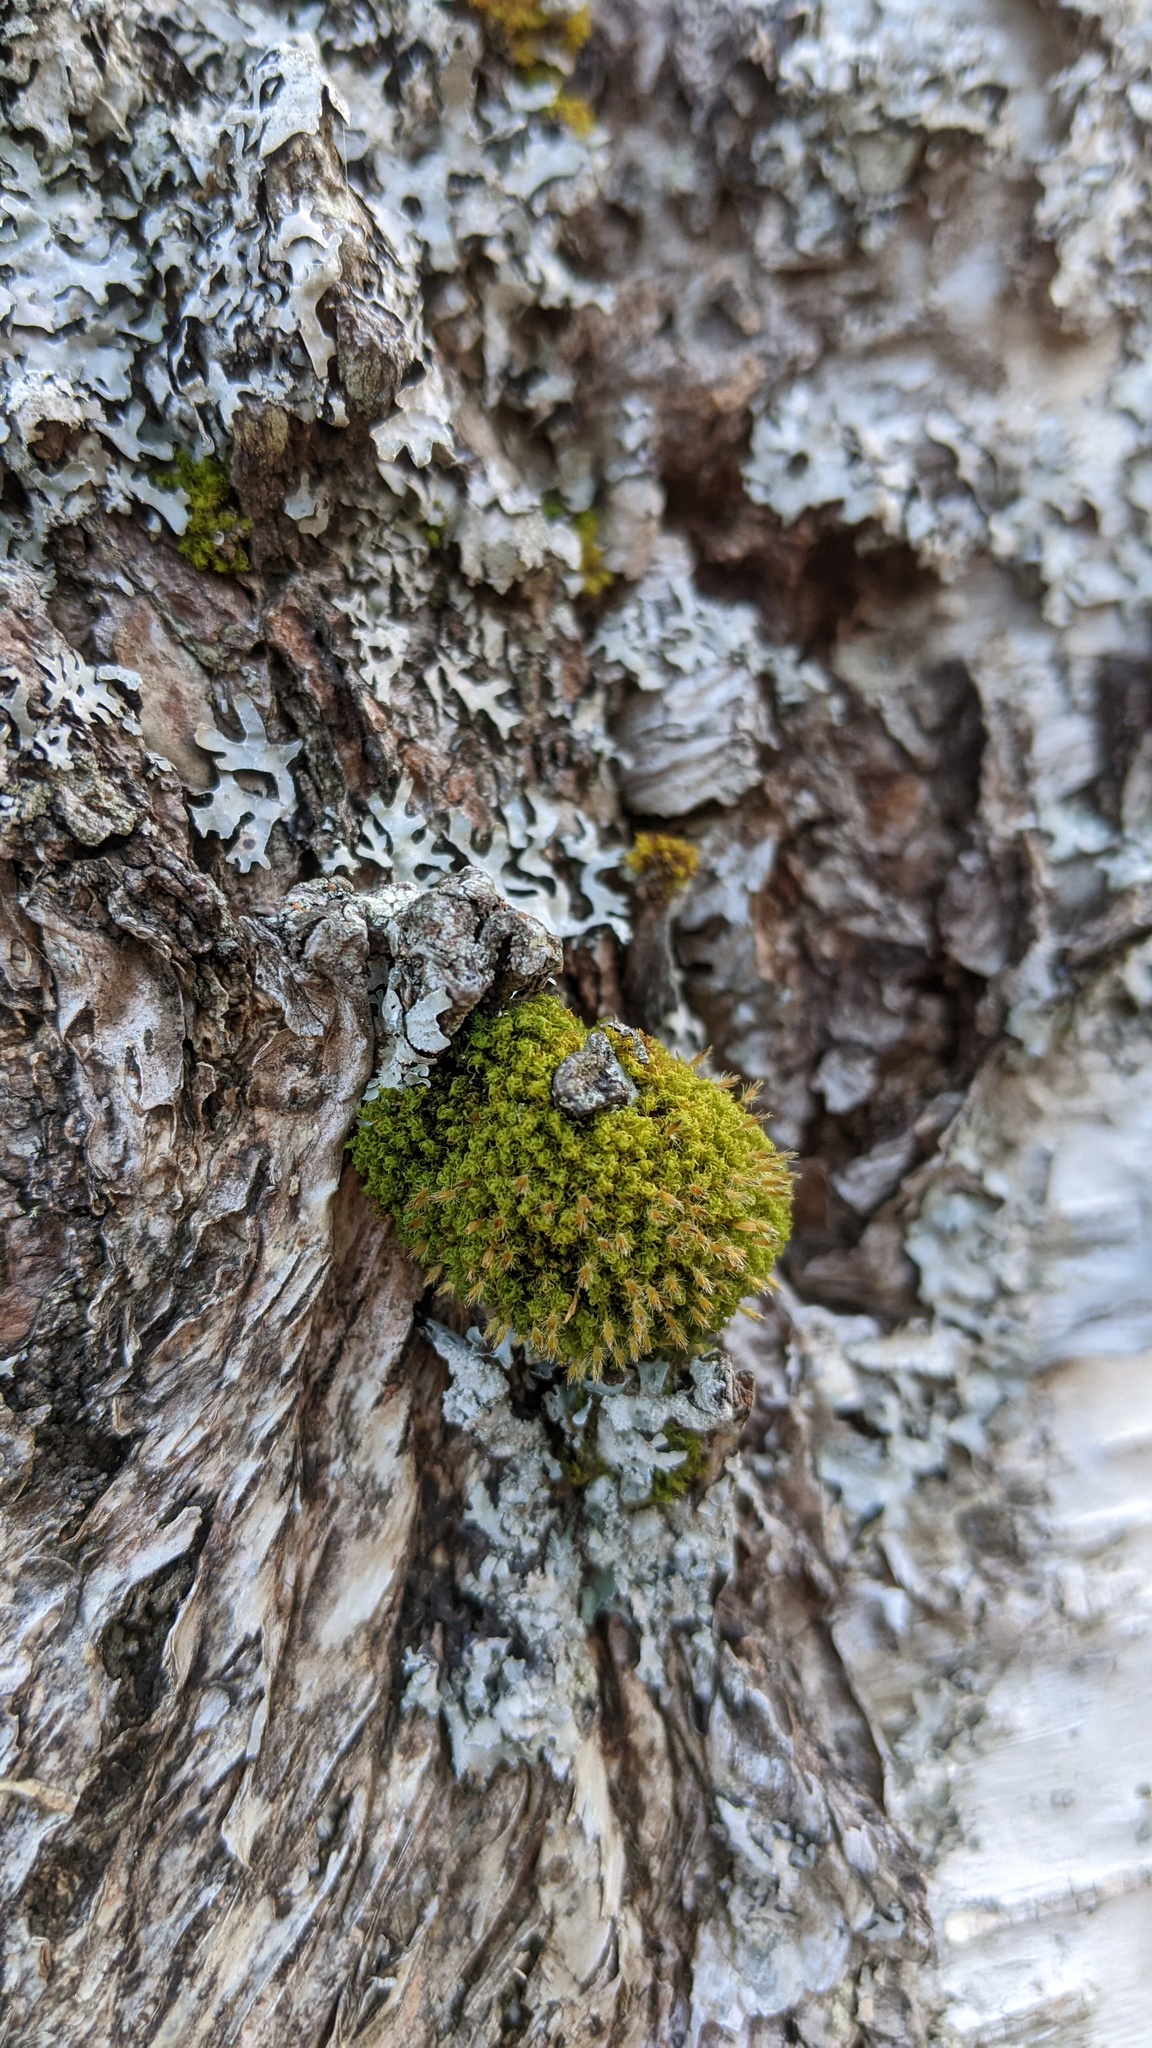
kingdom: Plantae
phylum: Bryophyta
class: Bryopsida
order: Orthotrichales
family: Orthotrichaceae
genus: Ulota
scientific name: Ulota crispa
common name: Crisped pincushion moss
